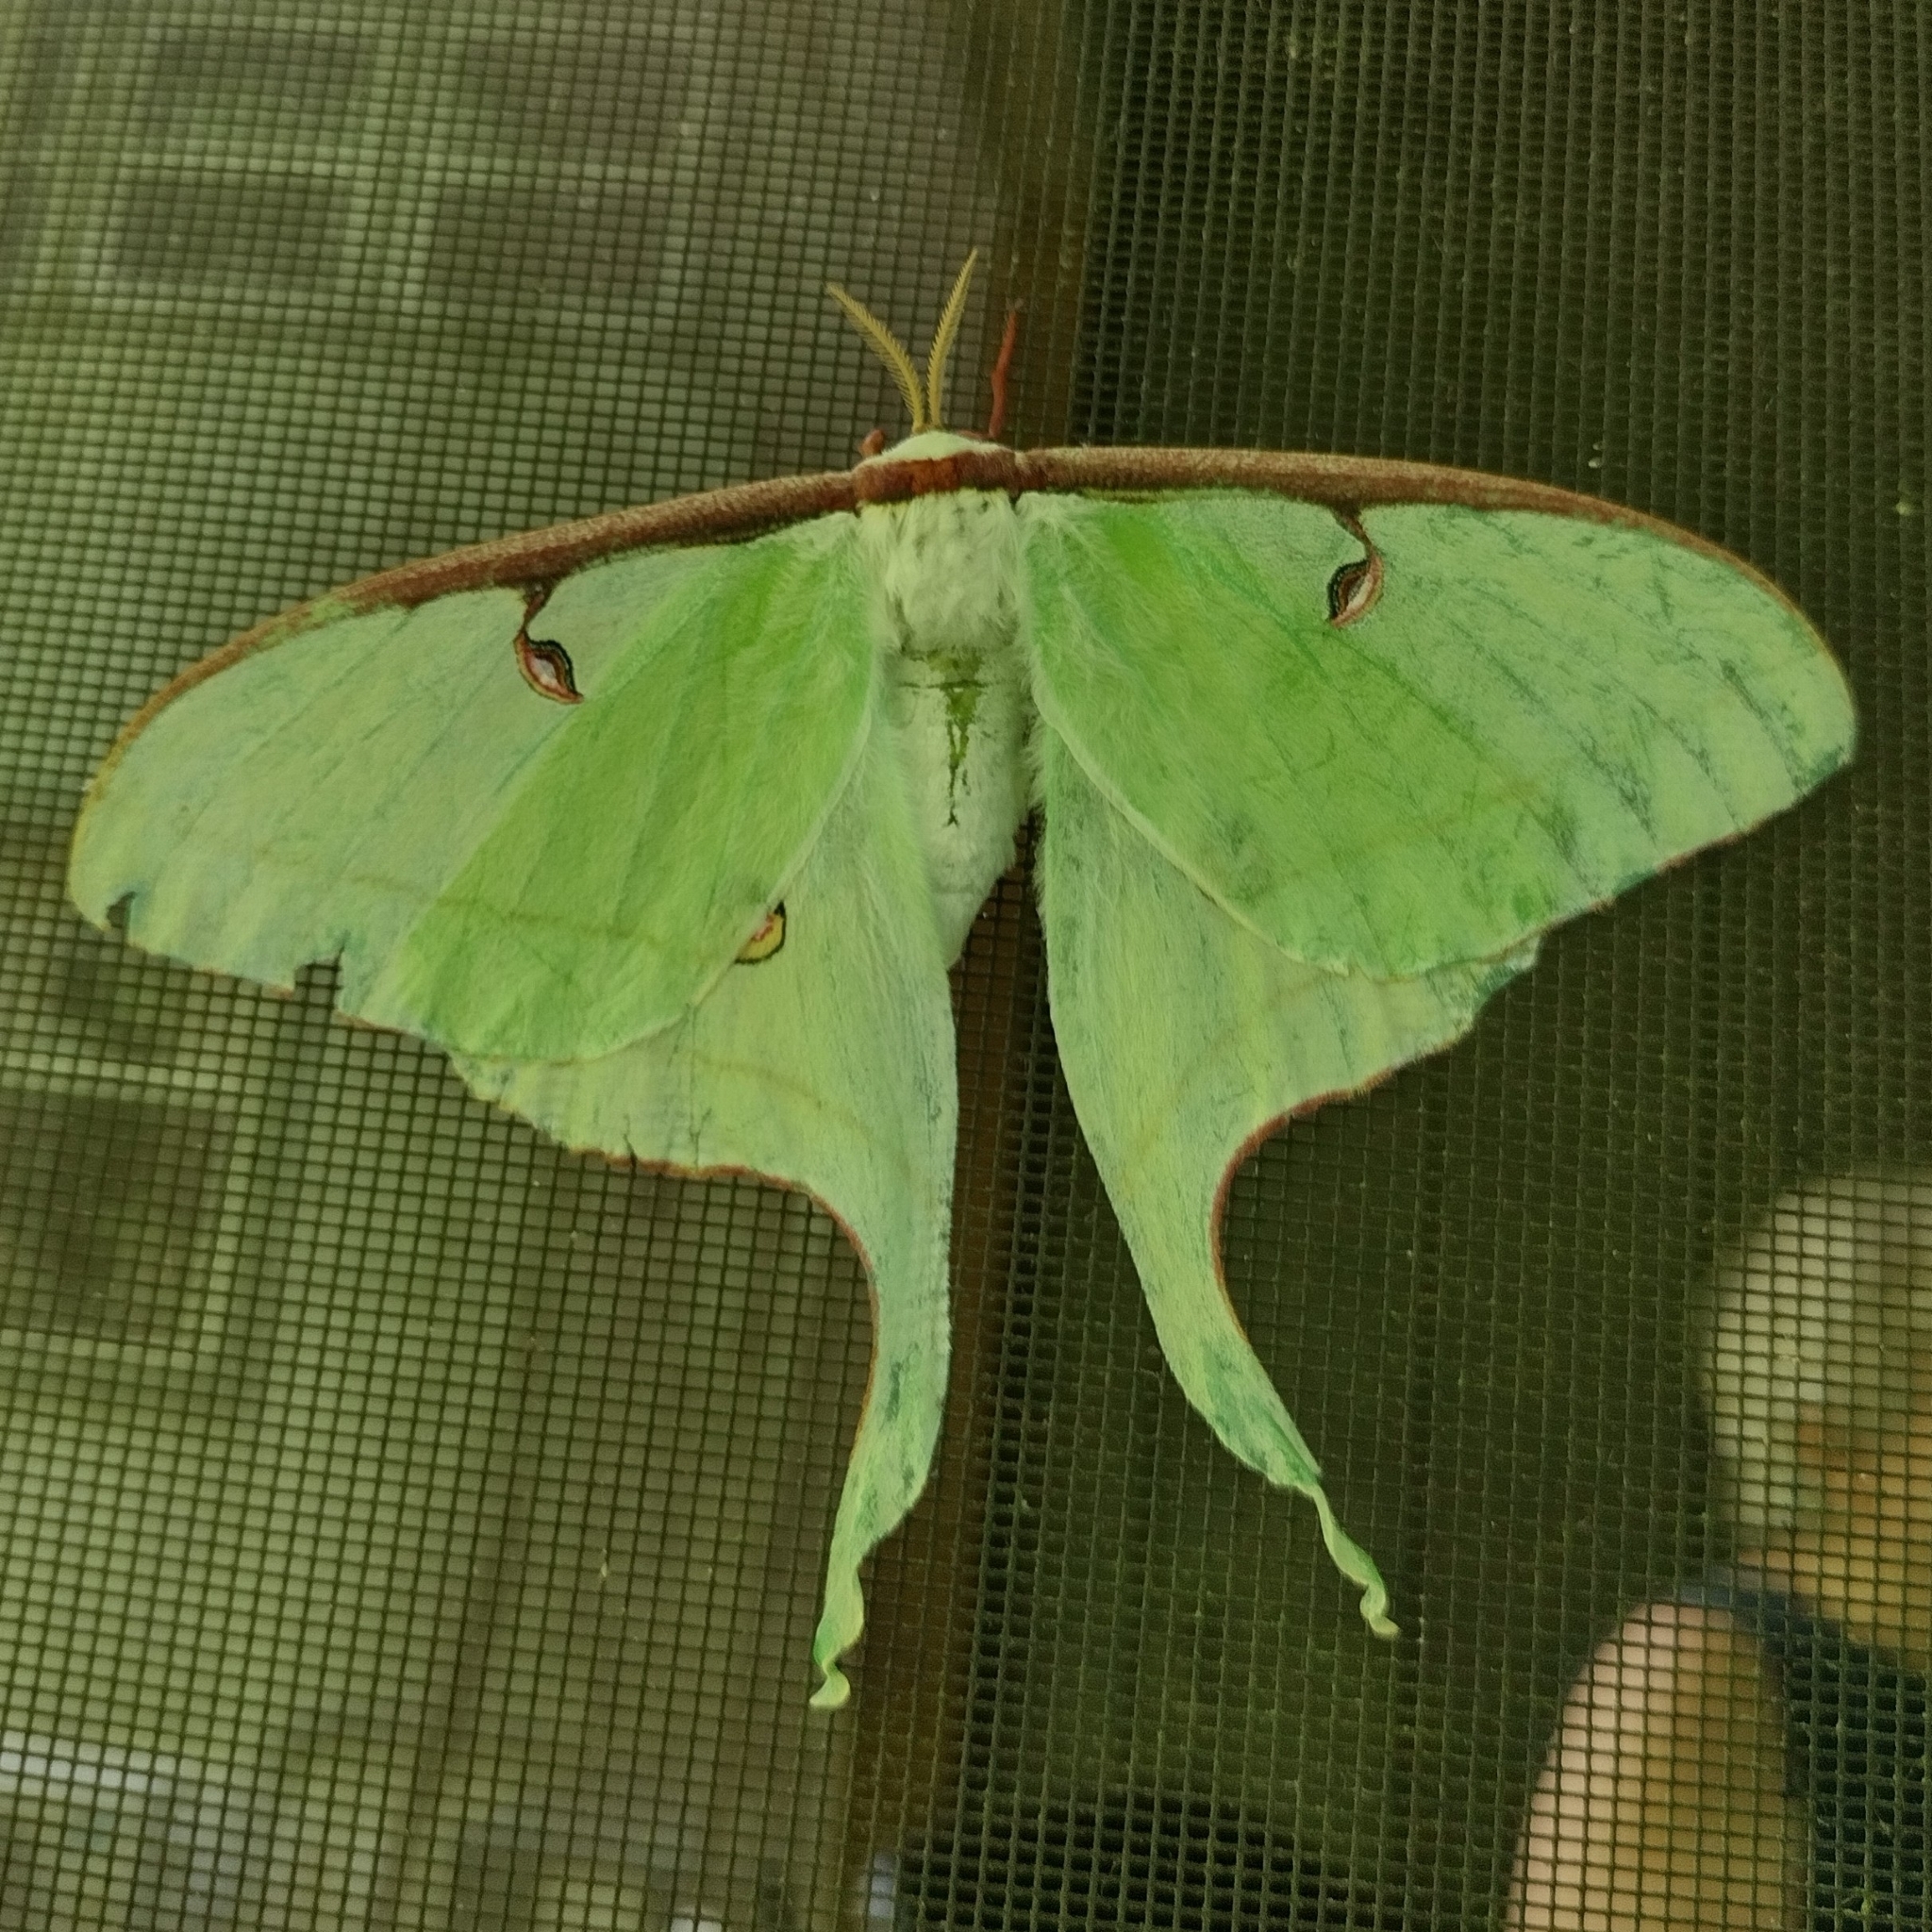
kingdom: Animalia
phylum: Arthropoda
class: Insecta
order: Lepidoptera
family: Saturniidae
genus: Actias
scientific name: Actias luna
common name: Luna moth
